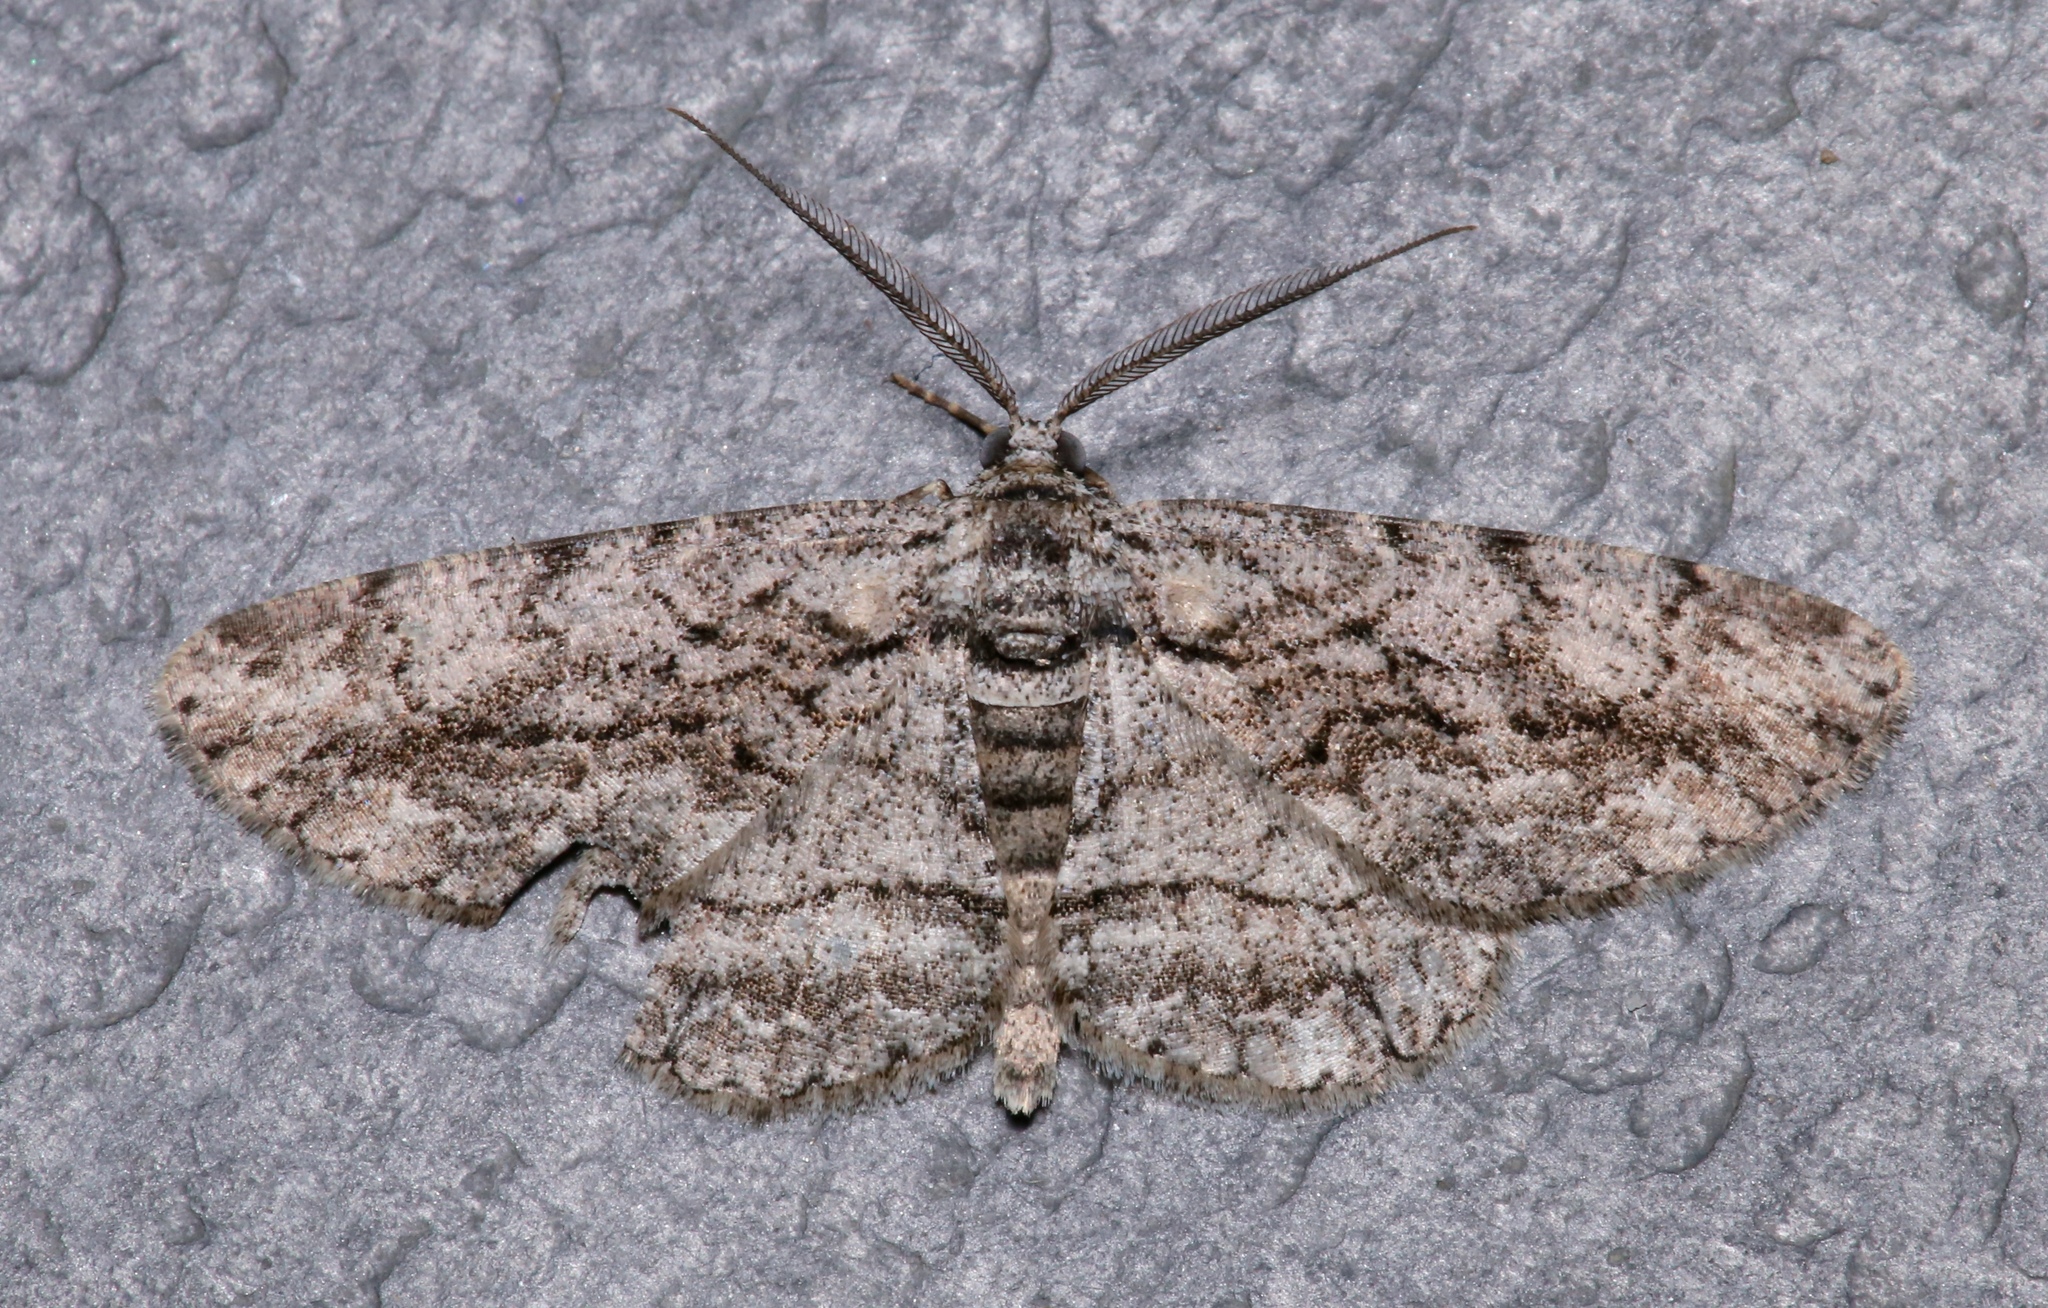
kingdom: Animalia
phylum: Arthropoda
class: Insecta
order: Lepidoptera
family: Geometridae
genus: Anavitrinella
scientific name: Anavitrinella pampinaria
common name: Common gray
